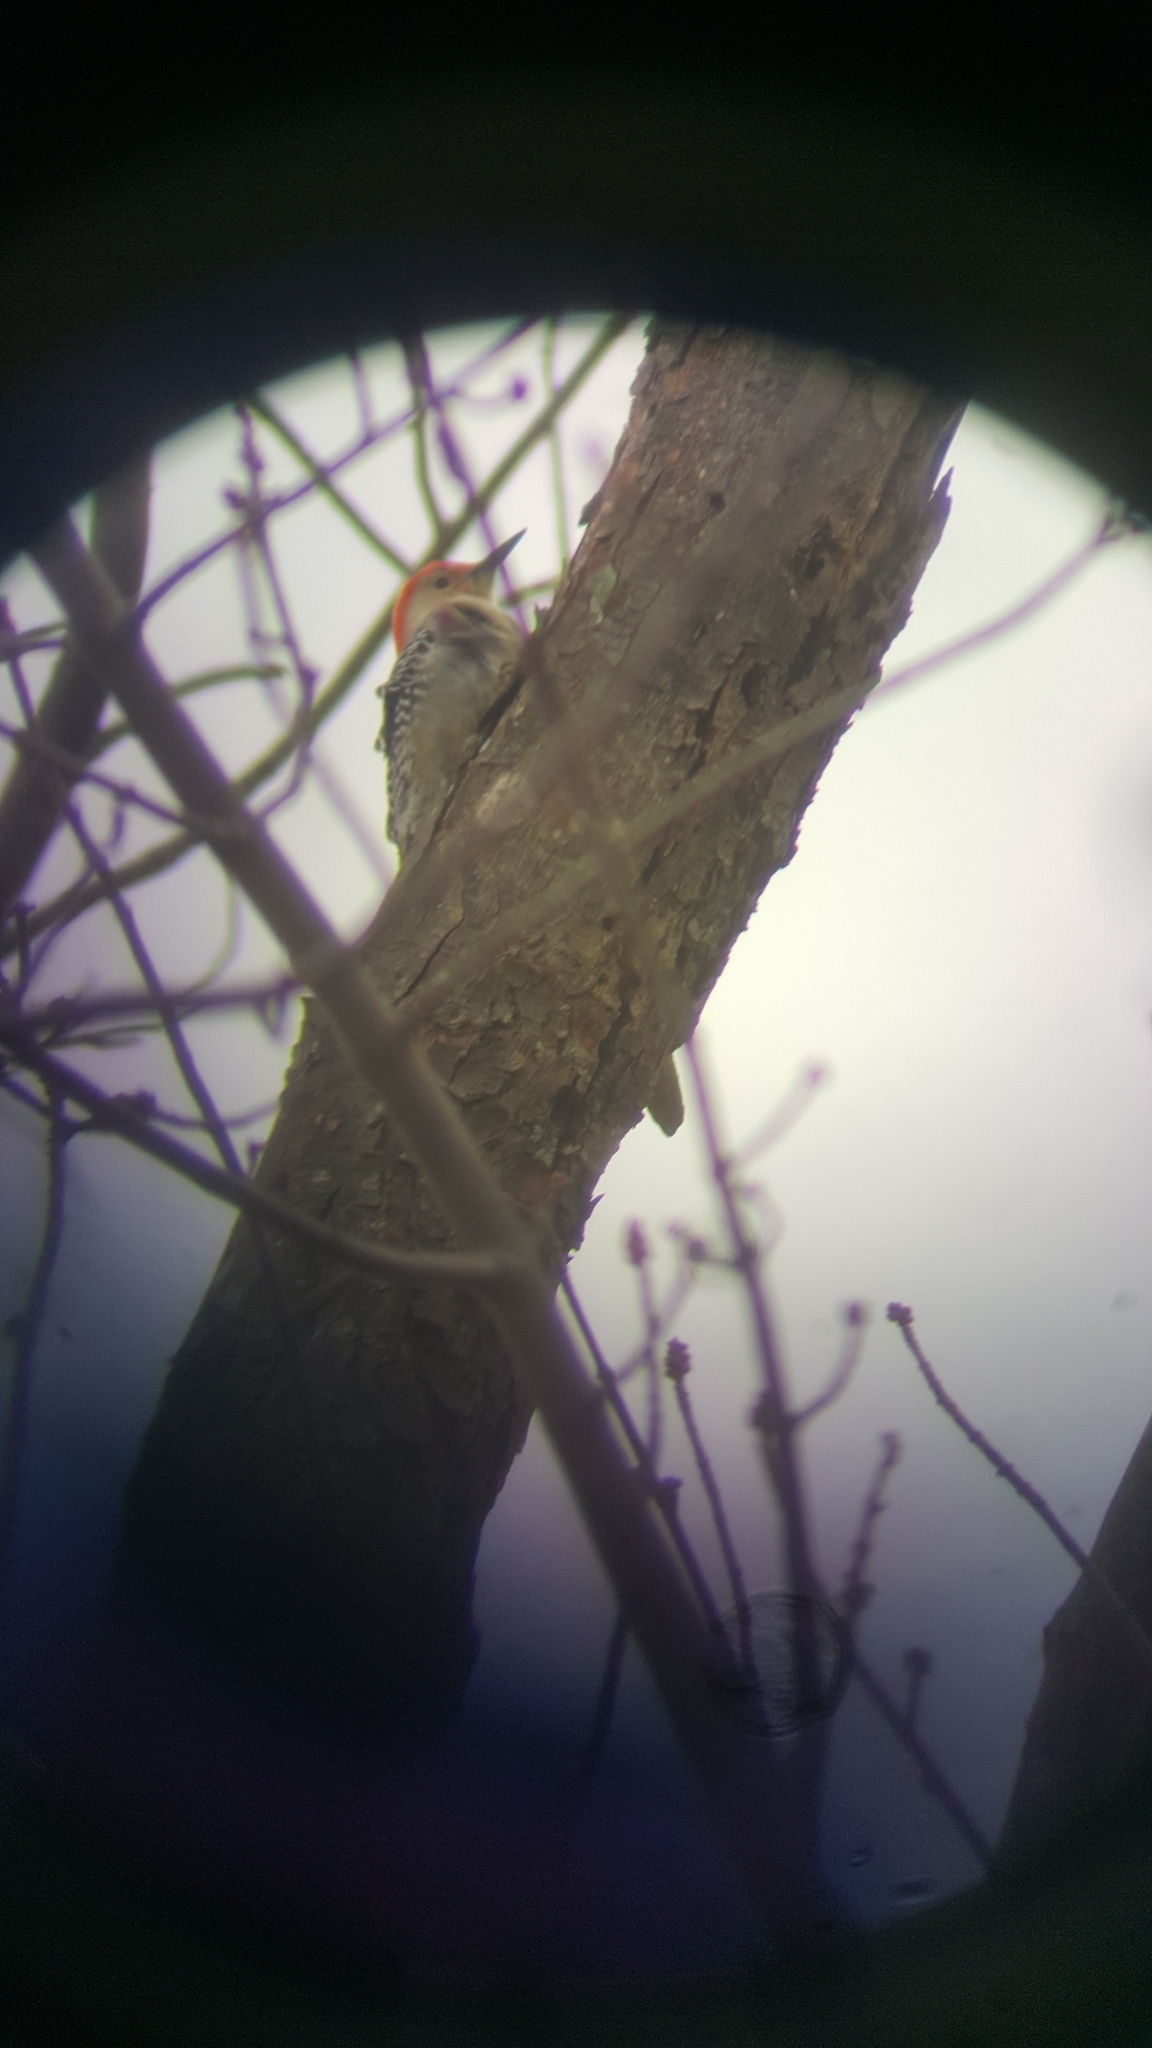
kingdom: Animalia
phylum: Chordata
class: Aves
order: Piciformes
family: Picidae
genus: Melanerpes
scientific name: Melanerpes carolinus
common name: Red-bellied woodpecker
